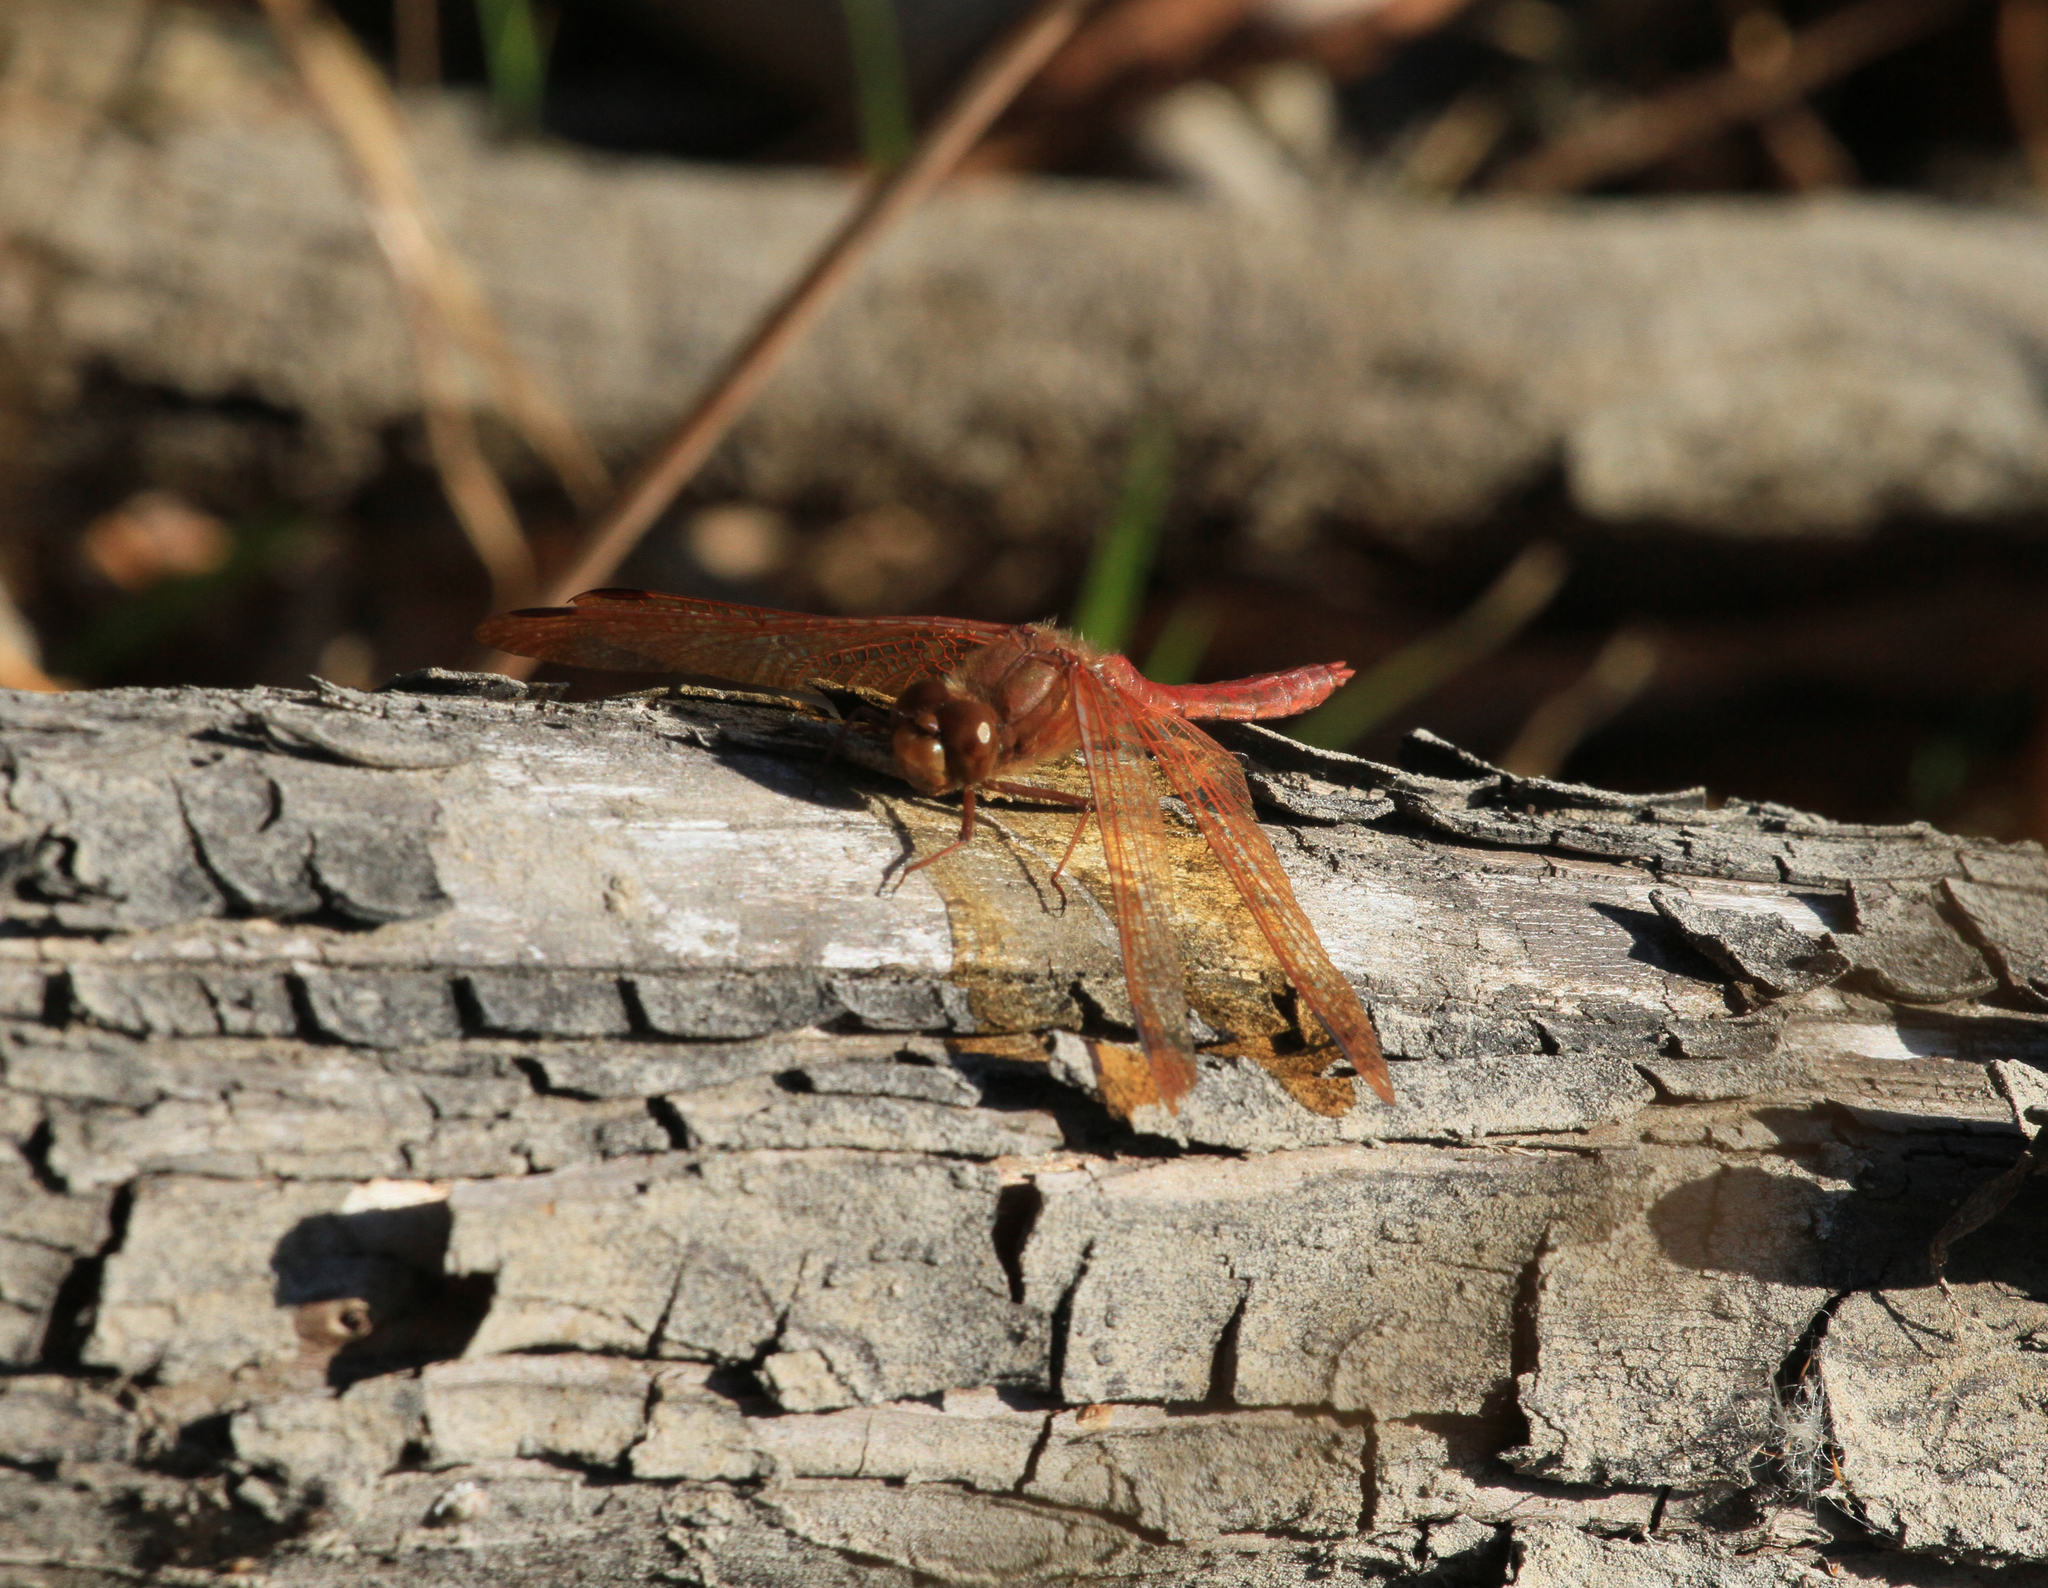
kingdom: Animalia
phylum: Arthropoda
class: Insecta
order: Odonata
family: Libellulidae
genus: Sympetrum
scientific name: Sympetrum croceolum
